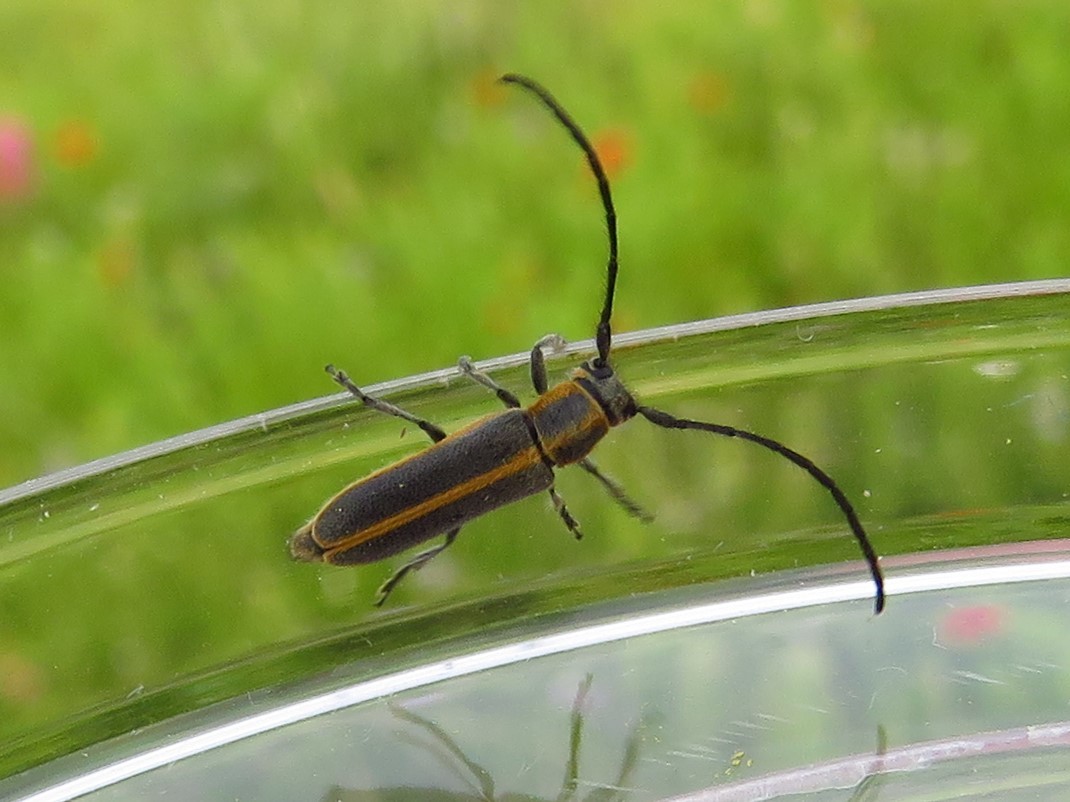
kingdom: Animalia
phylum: Arthropoda
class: Insecta
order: Coleoptera
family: Cerambycidae
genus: Mecas
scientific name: Mecas marginella
